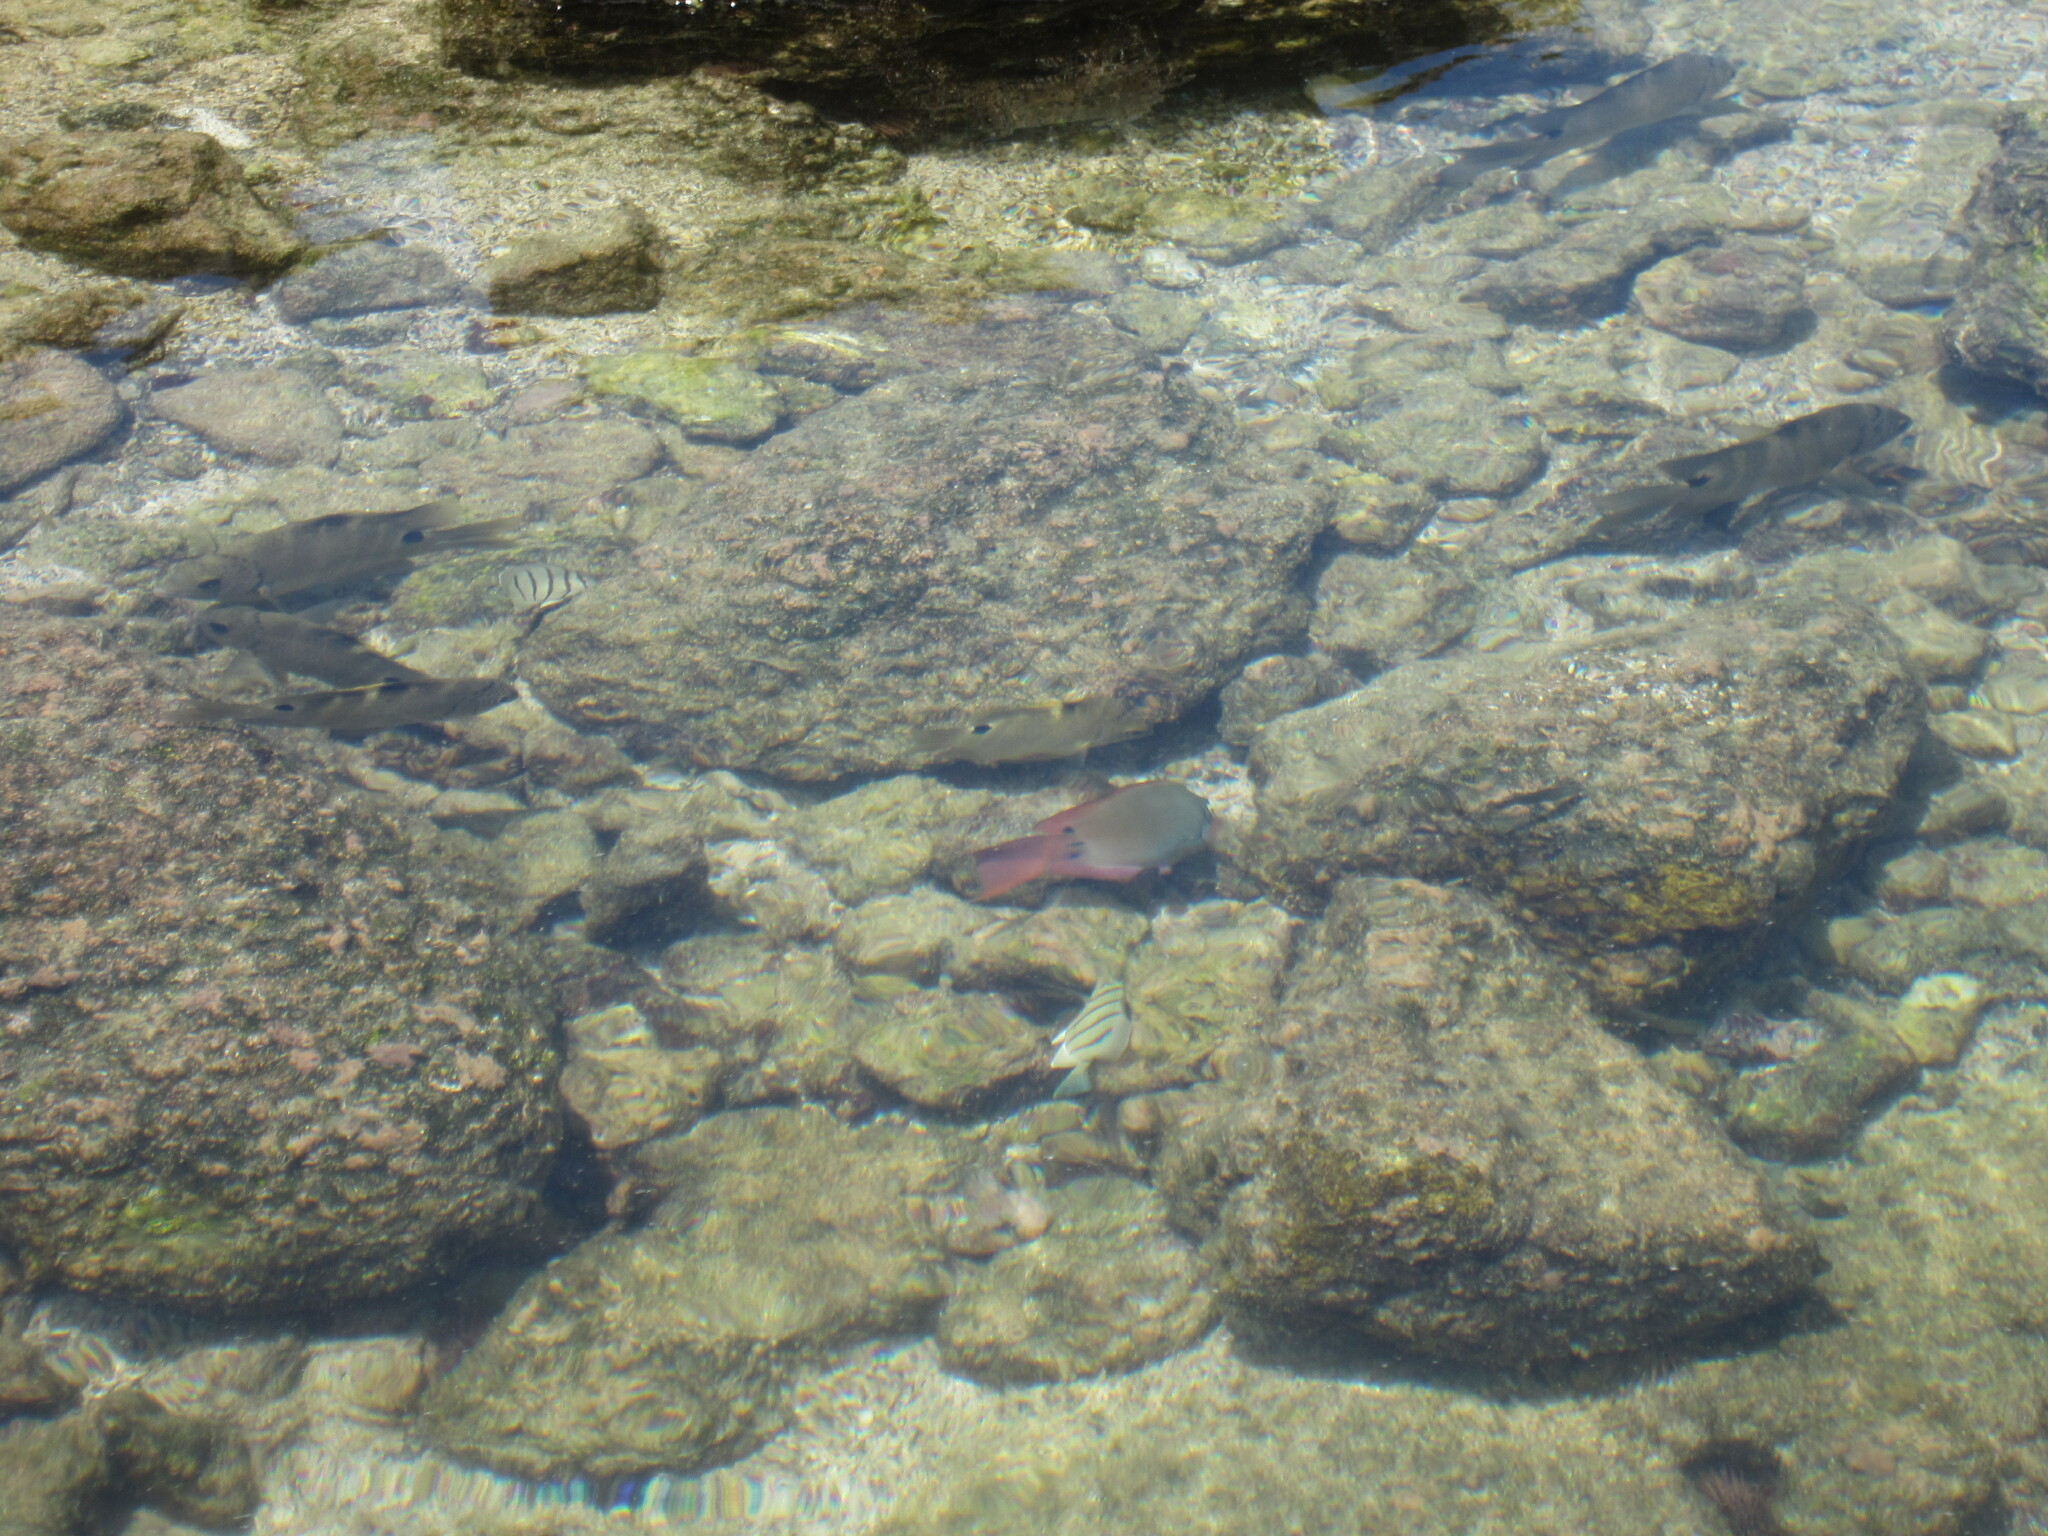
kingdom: Animalia
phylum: Chordata
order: Perciformes
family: Acanthuridae
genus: Acanthurus
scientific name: Acanthurus nigrofuscus
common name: Blackspot surgeonfish
